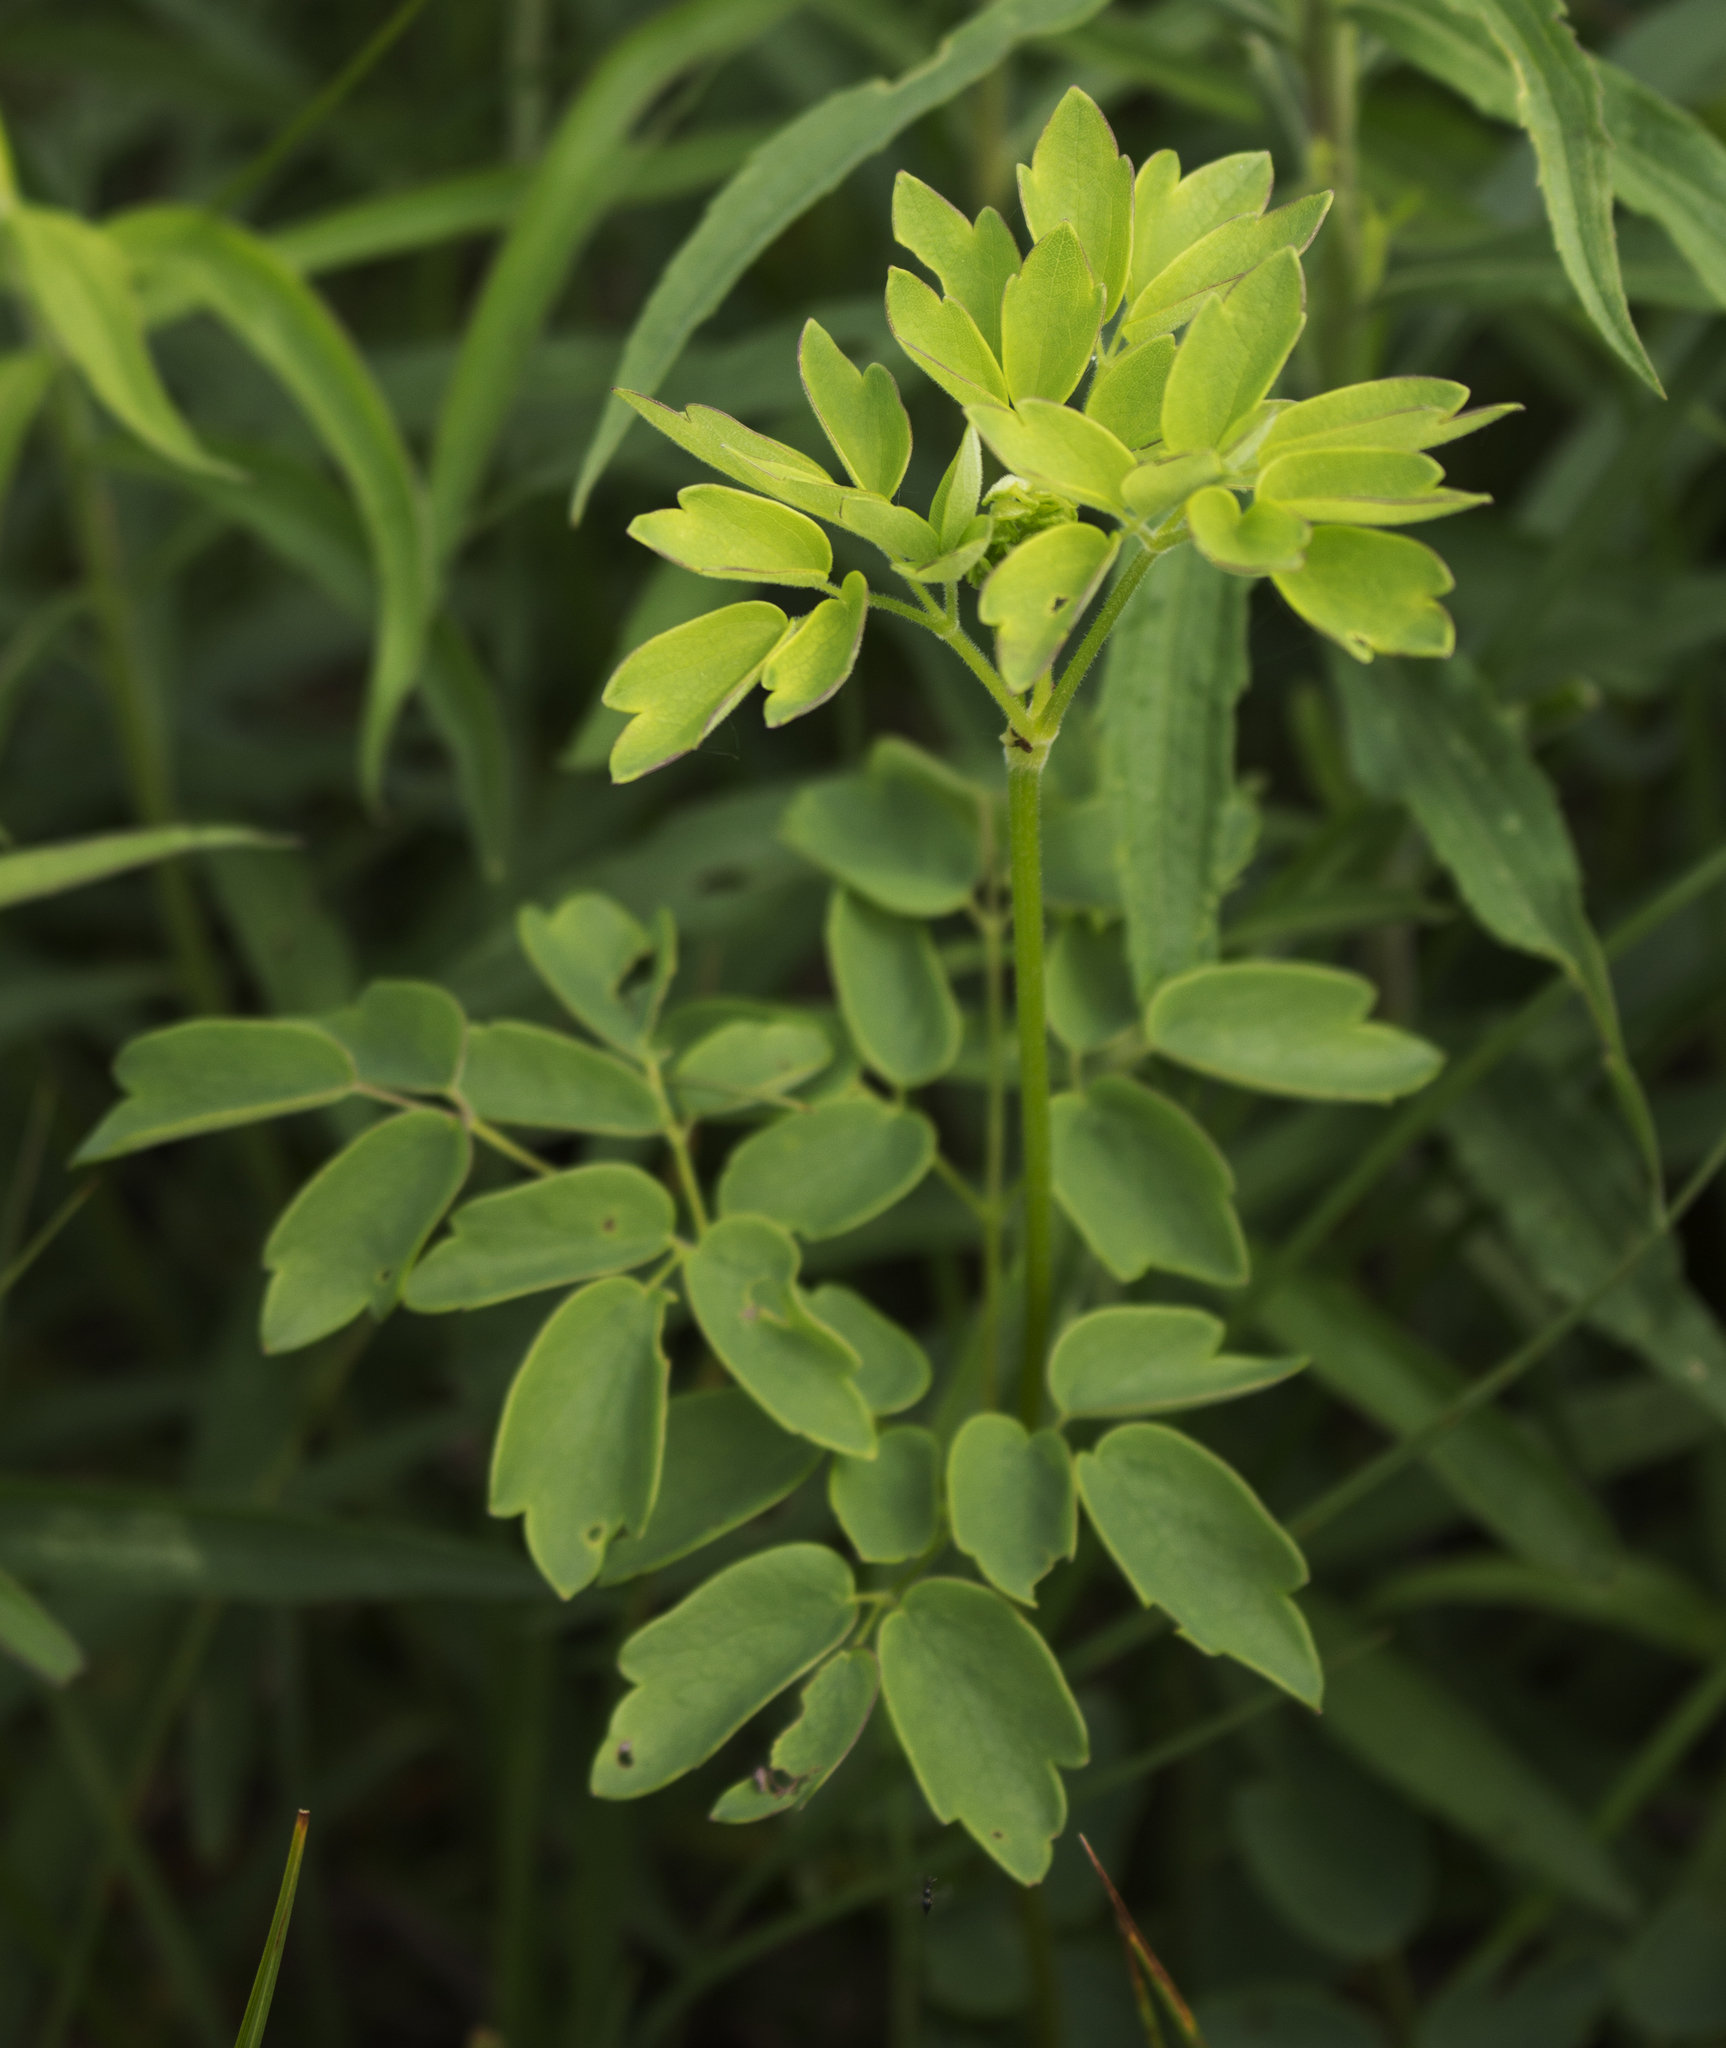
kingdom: Plantae
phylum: Tracheophyta
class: Magnoliopsida
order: Ranunculales
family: Ranunculaceae
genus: Thalictrum
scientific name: Thalictrum dasycarpum
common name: Purple meadow-rue
